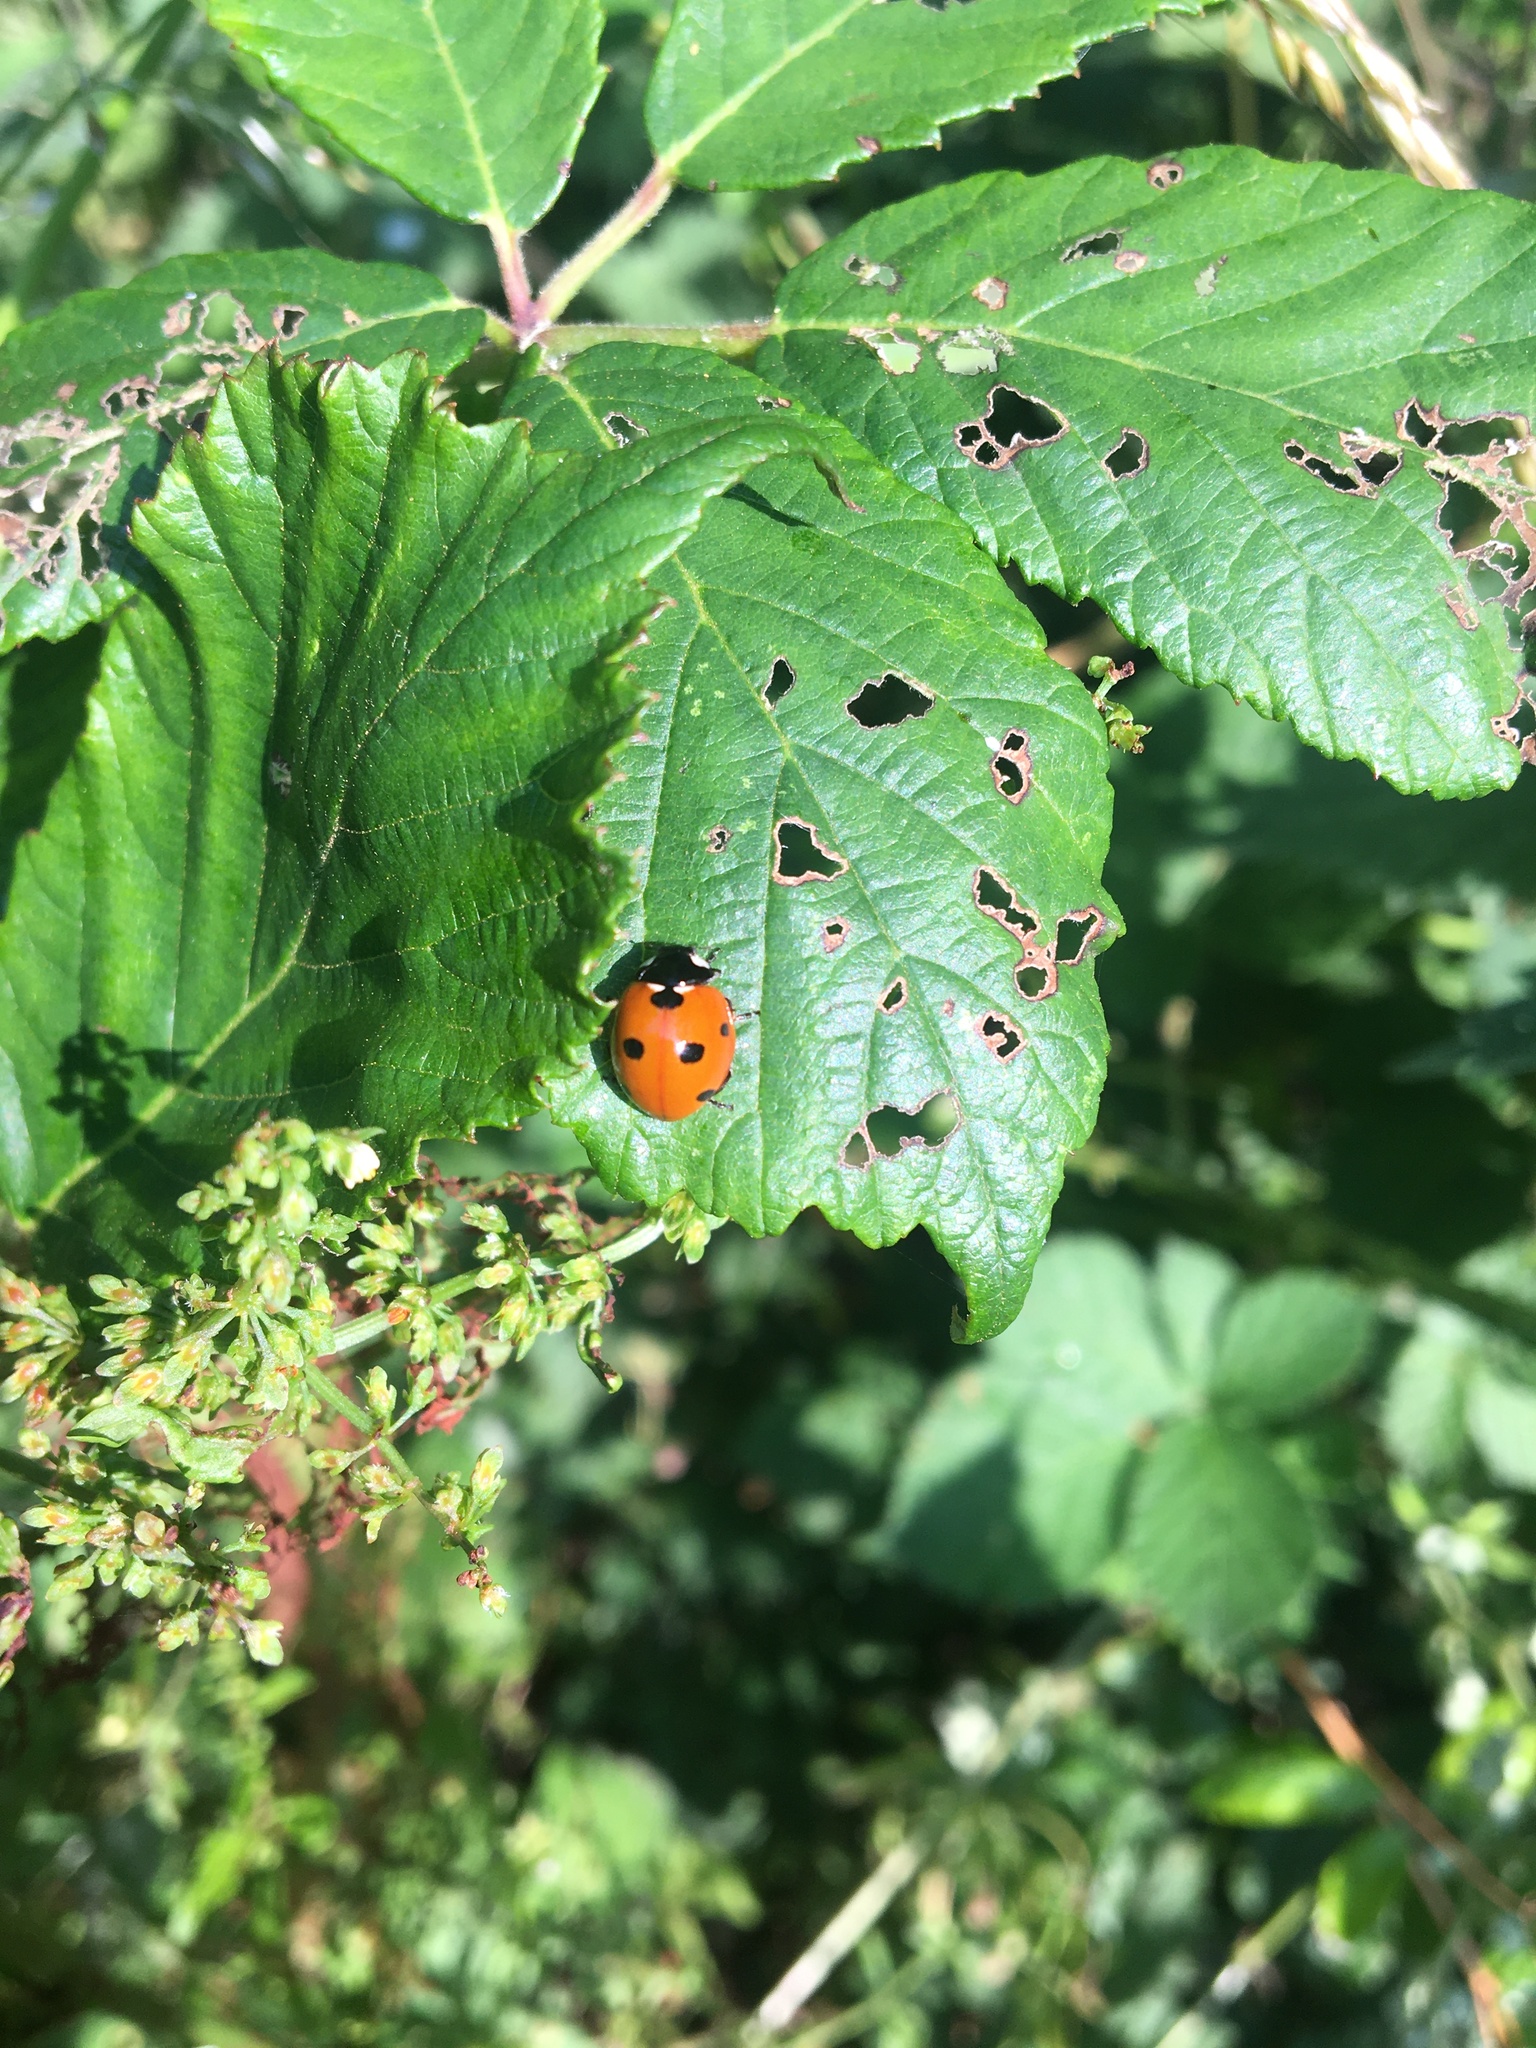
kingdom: Animalia
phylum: Arthropoda
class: Insecta
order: Coleoptera
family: Coccinellidae
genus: Coccinella
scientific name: Coccinella septempunctata
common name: Sevenspotted lady beetle
